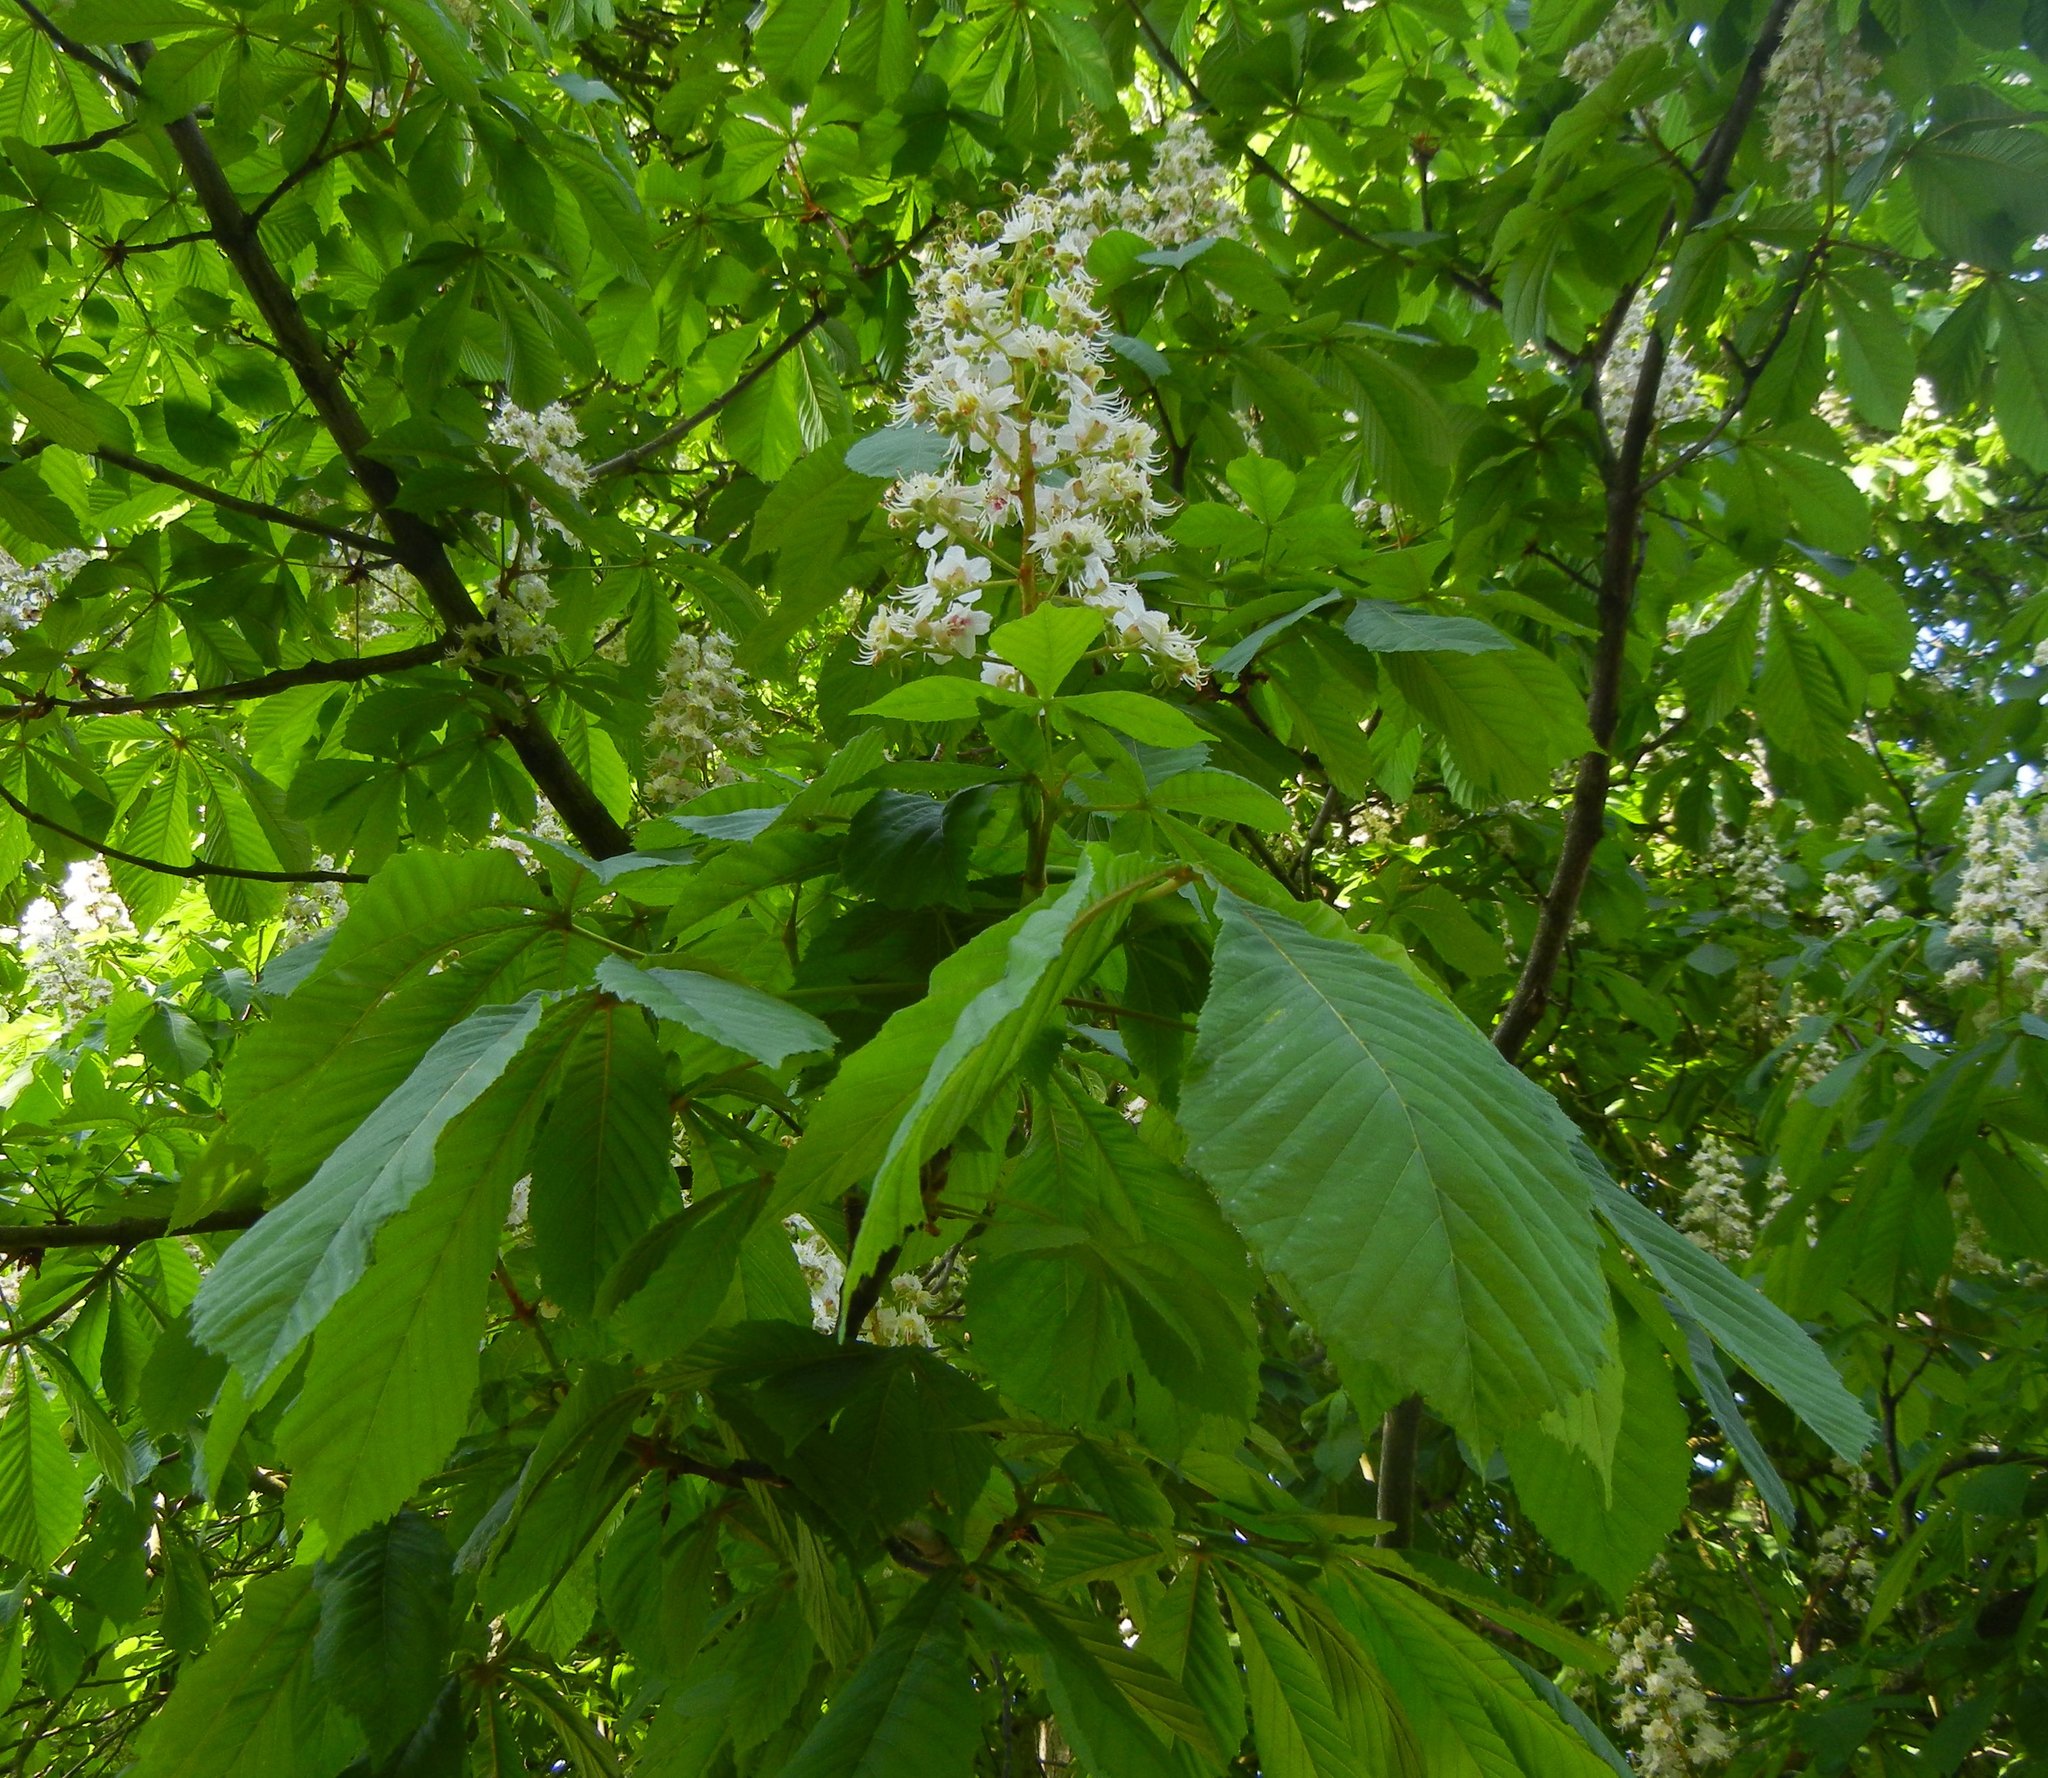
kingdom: Plantae
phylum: Tracheophyta
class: Magnoliopsida
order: Sapindales
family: Sapindaceae
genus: Aesculus
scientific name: Aesculus hippocastanum
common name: Horse-chestnut
